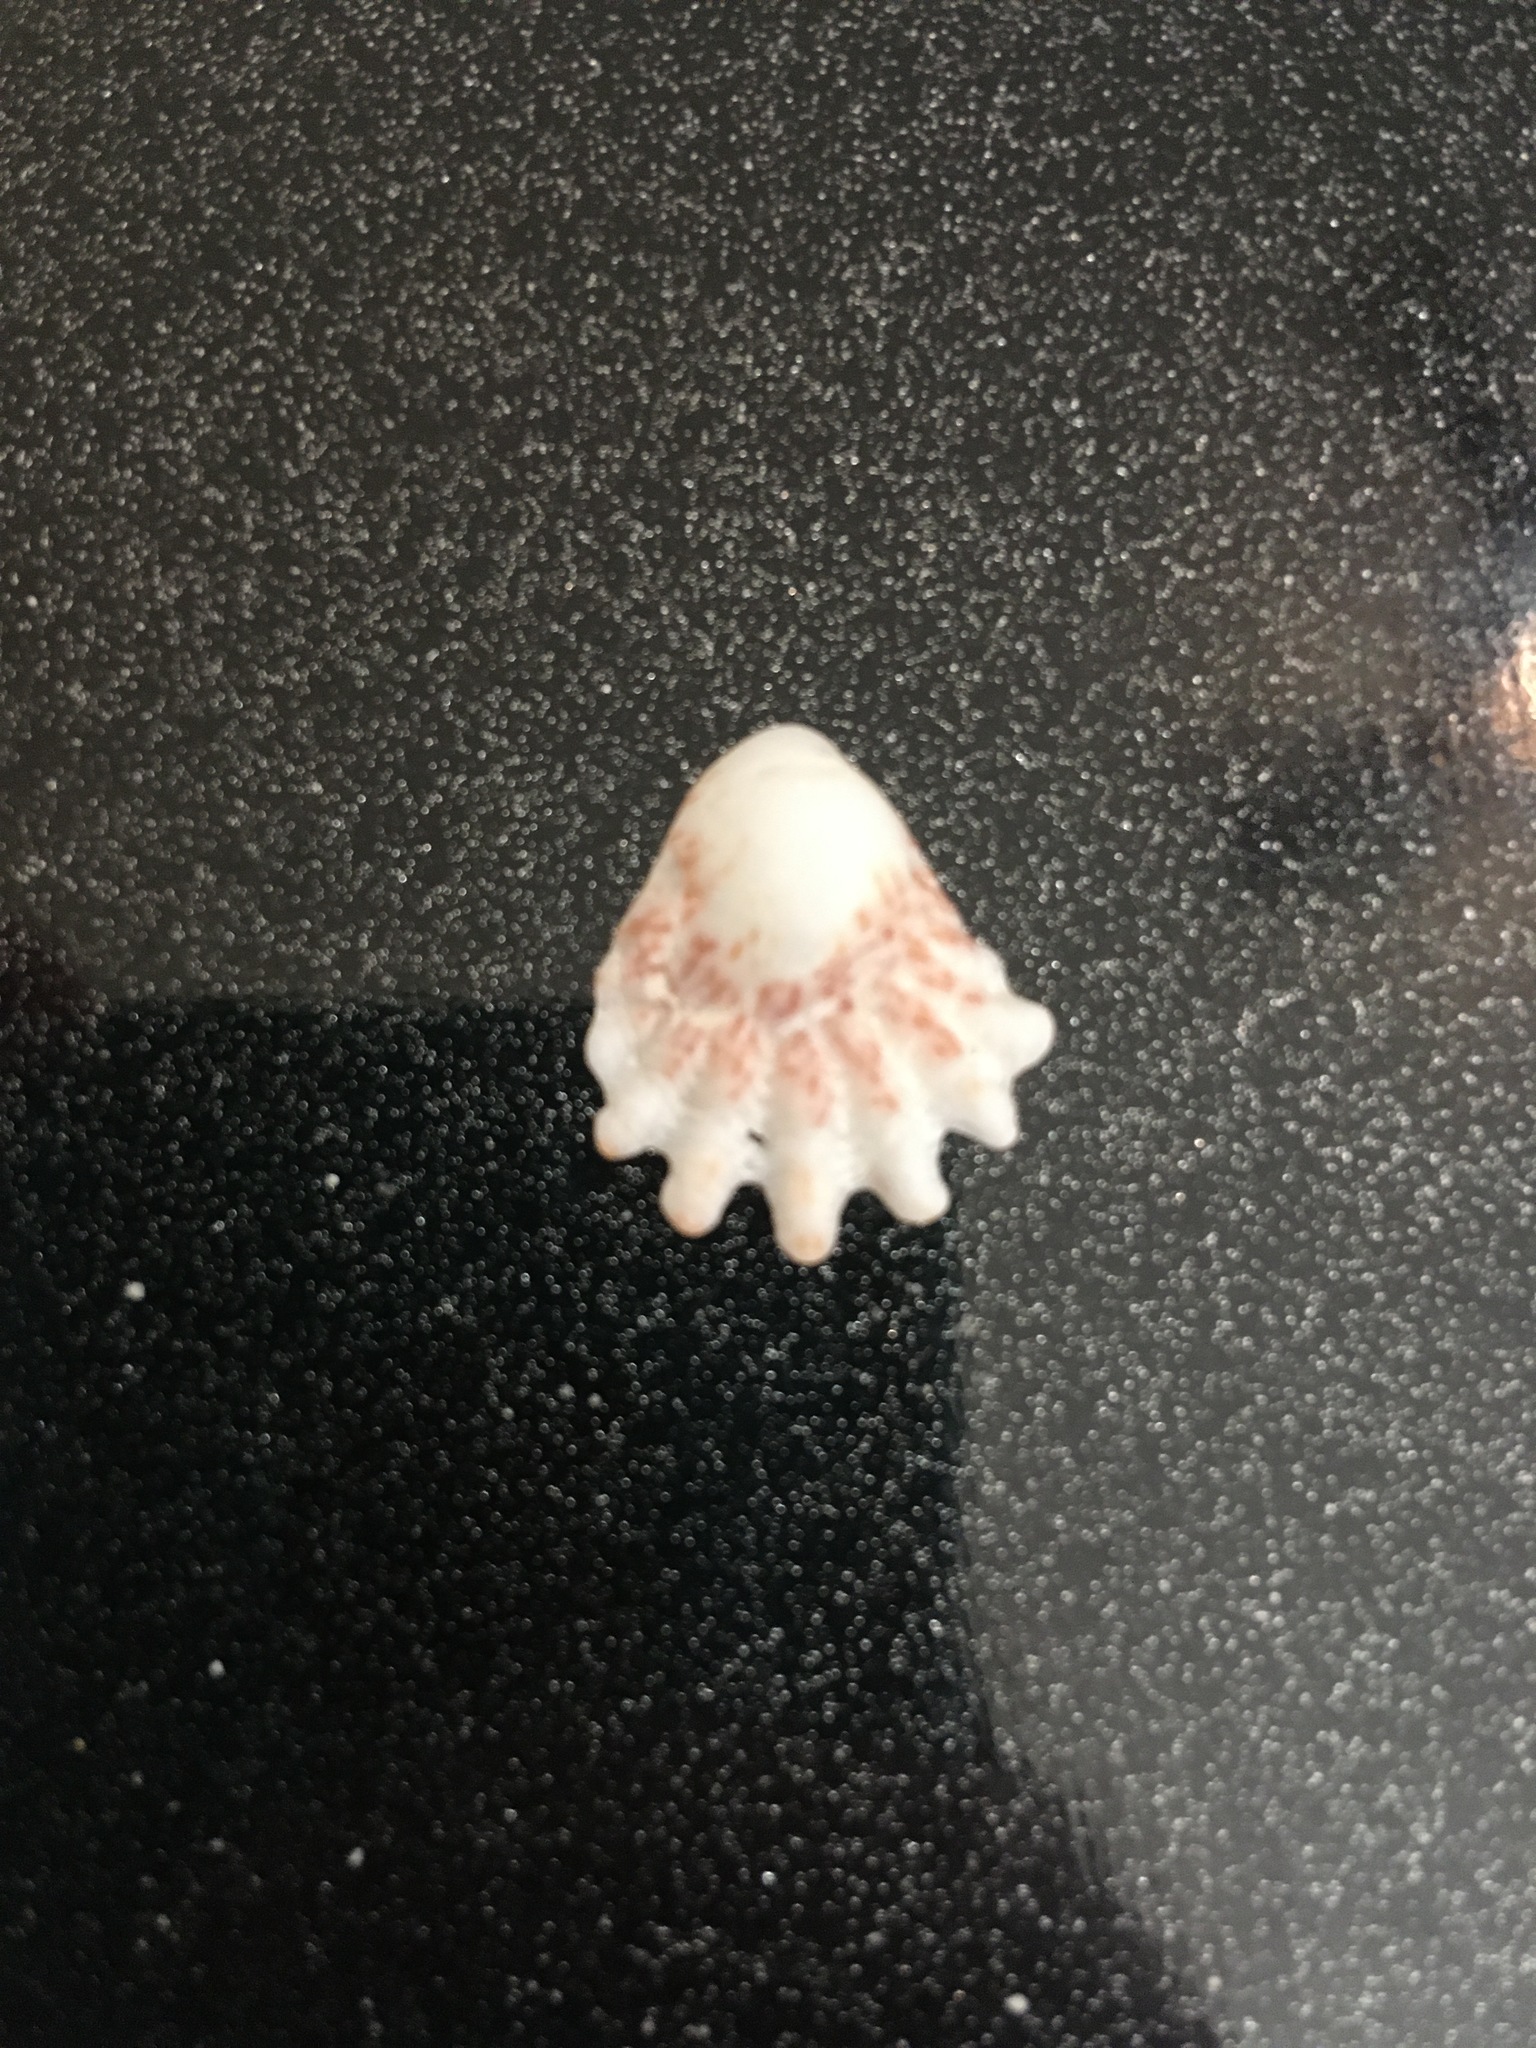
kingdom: Animalia
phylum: Mollusca
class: Bivalvia
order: Pectinida
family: Plicatulidae
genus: Plicatula
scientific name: Plicatula gibbosa
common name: Atlantic kitten's paw
